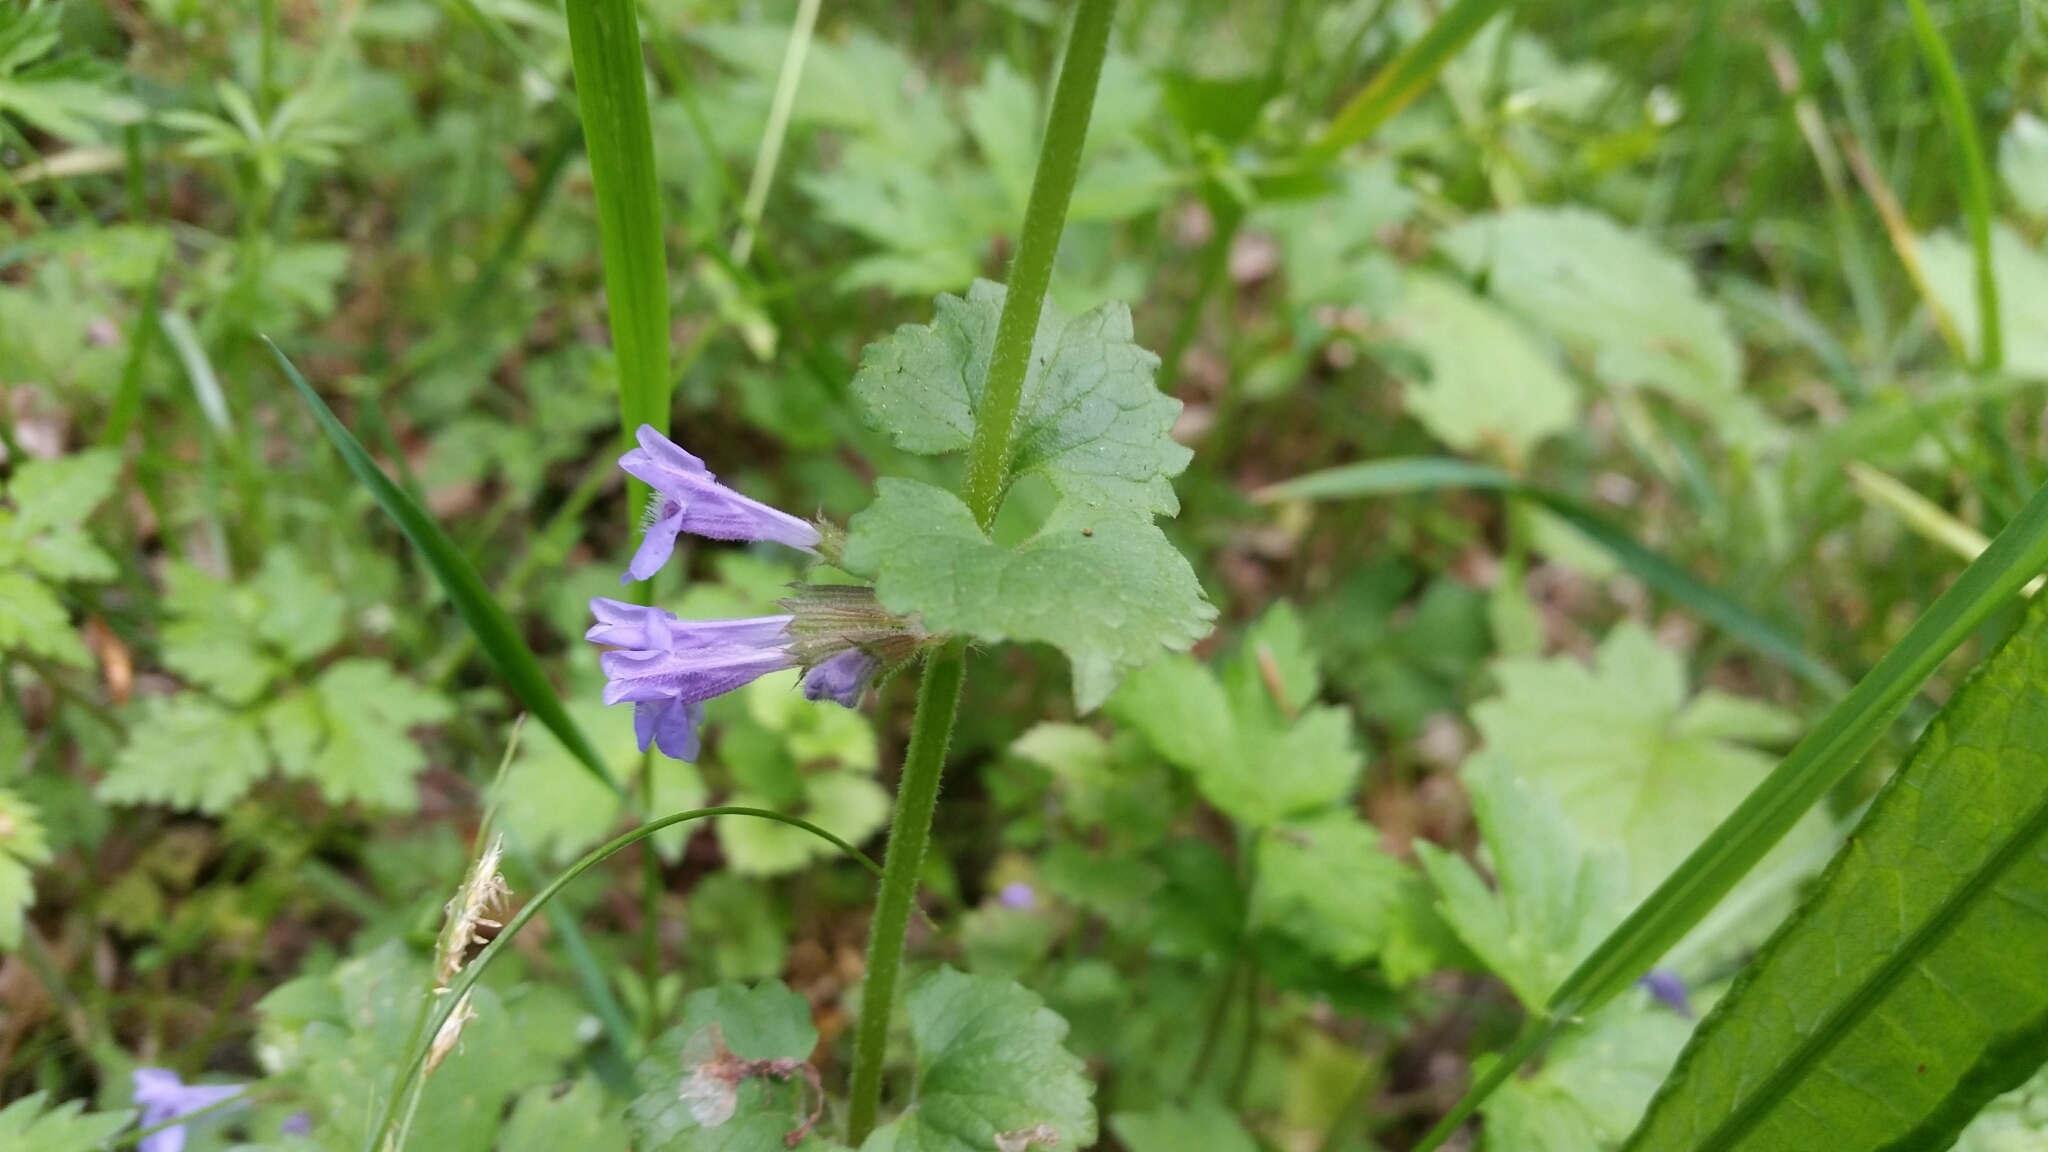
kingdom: Plantae
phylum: Tracheophyta
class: Magnoliopsida
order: Lamiales
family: Lamiaceae
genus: Glechoma
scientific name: Glechoma hederacea
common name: Ground ivy
